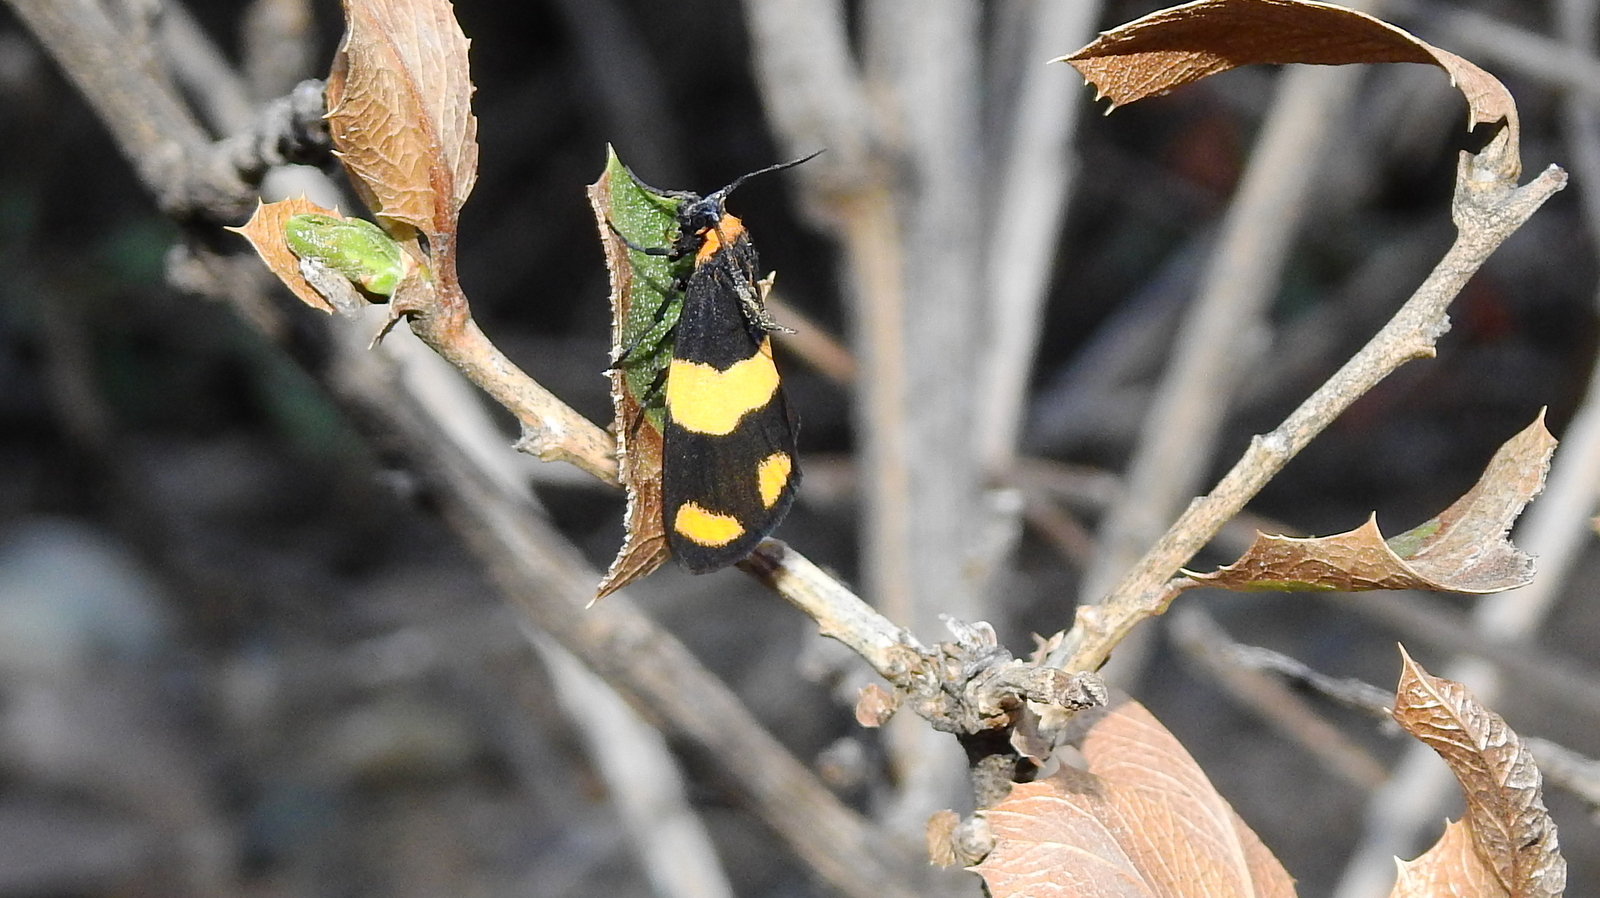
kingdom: Animalia
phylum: Arthropoda
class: Insecta
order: Lepidoptera
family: Erebidae
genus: Eudesmia
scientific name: Eudesmia
